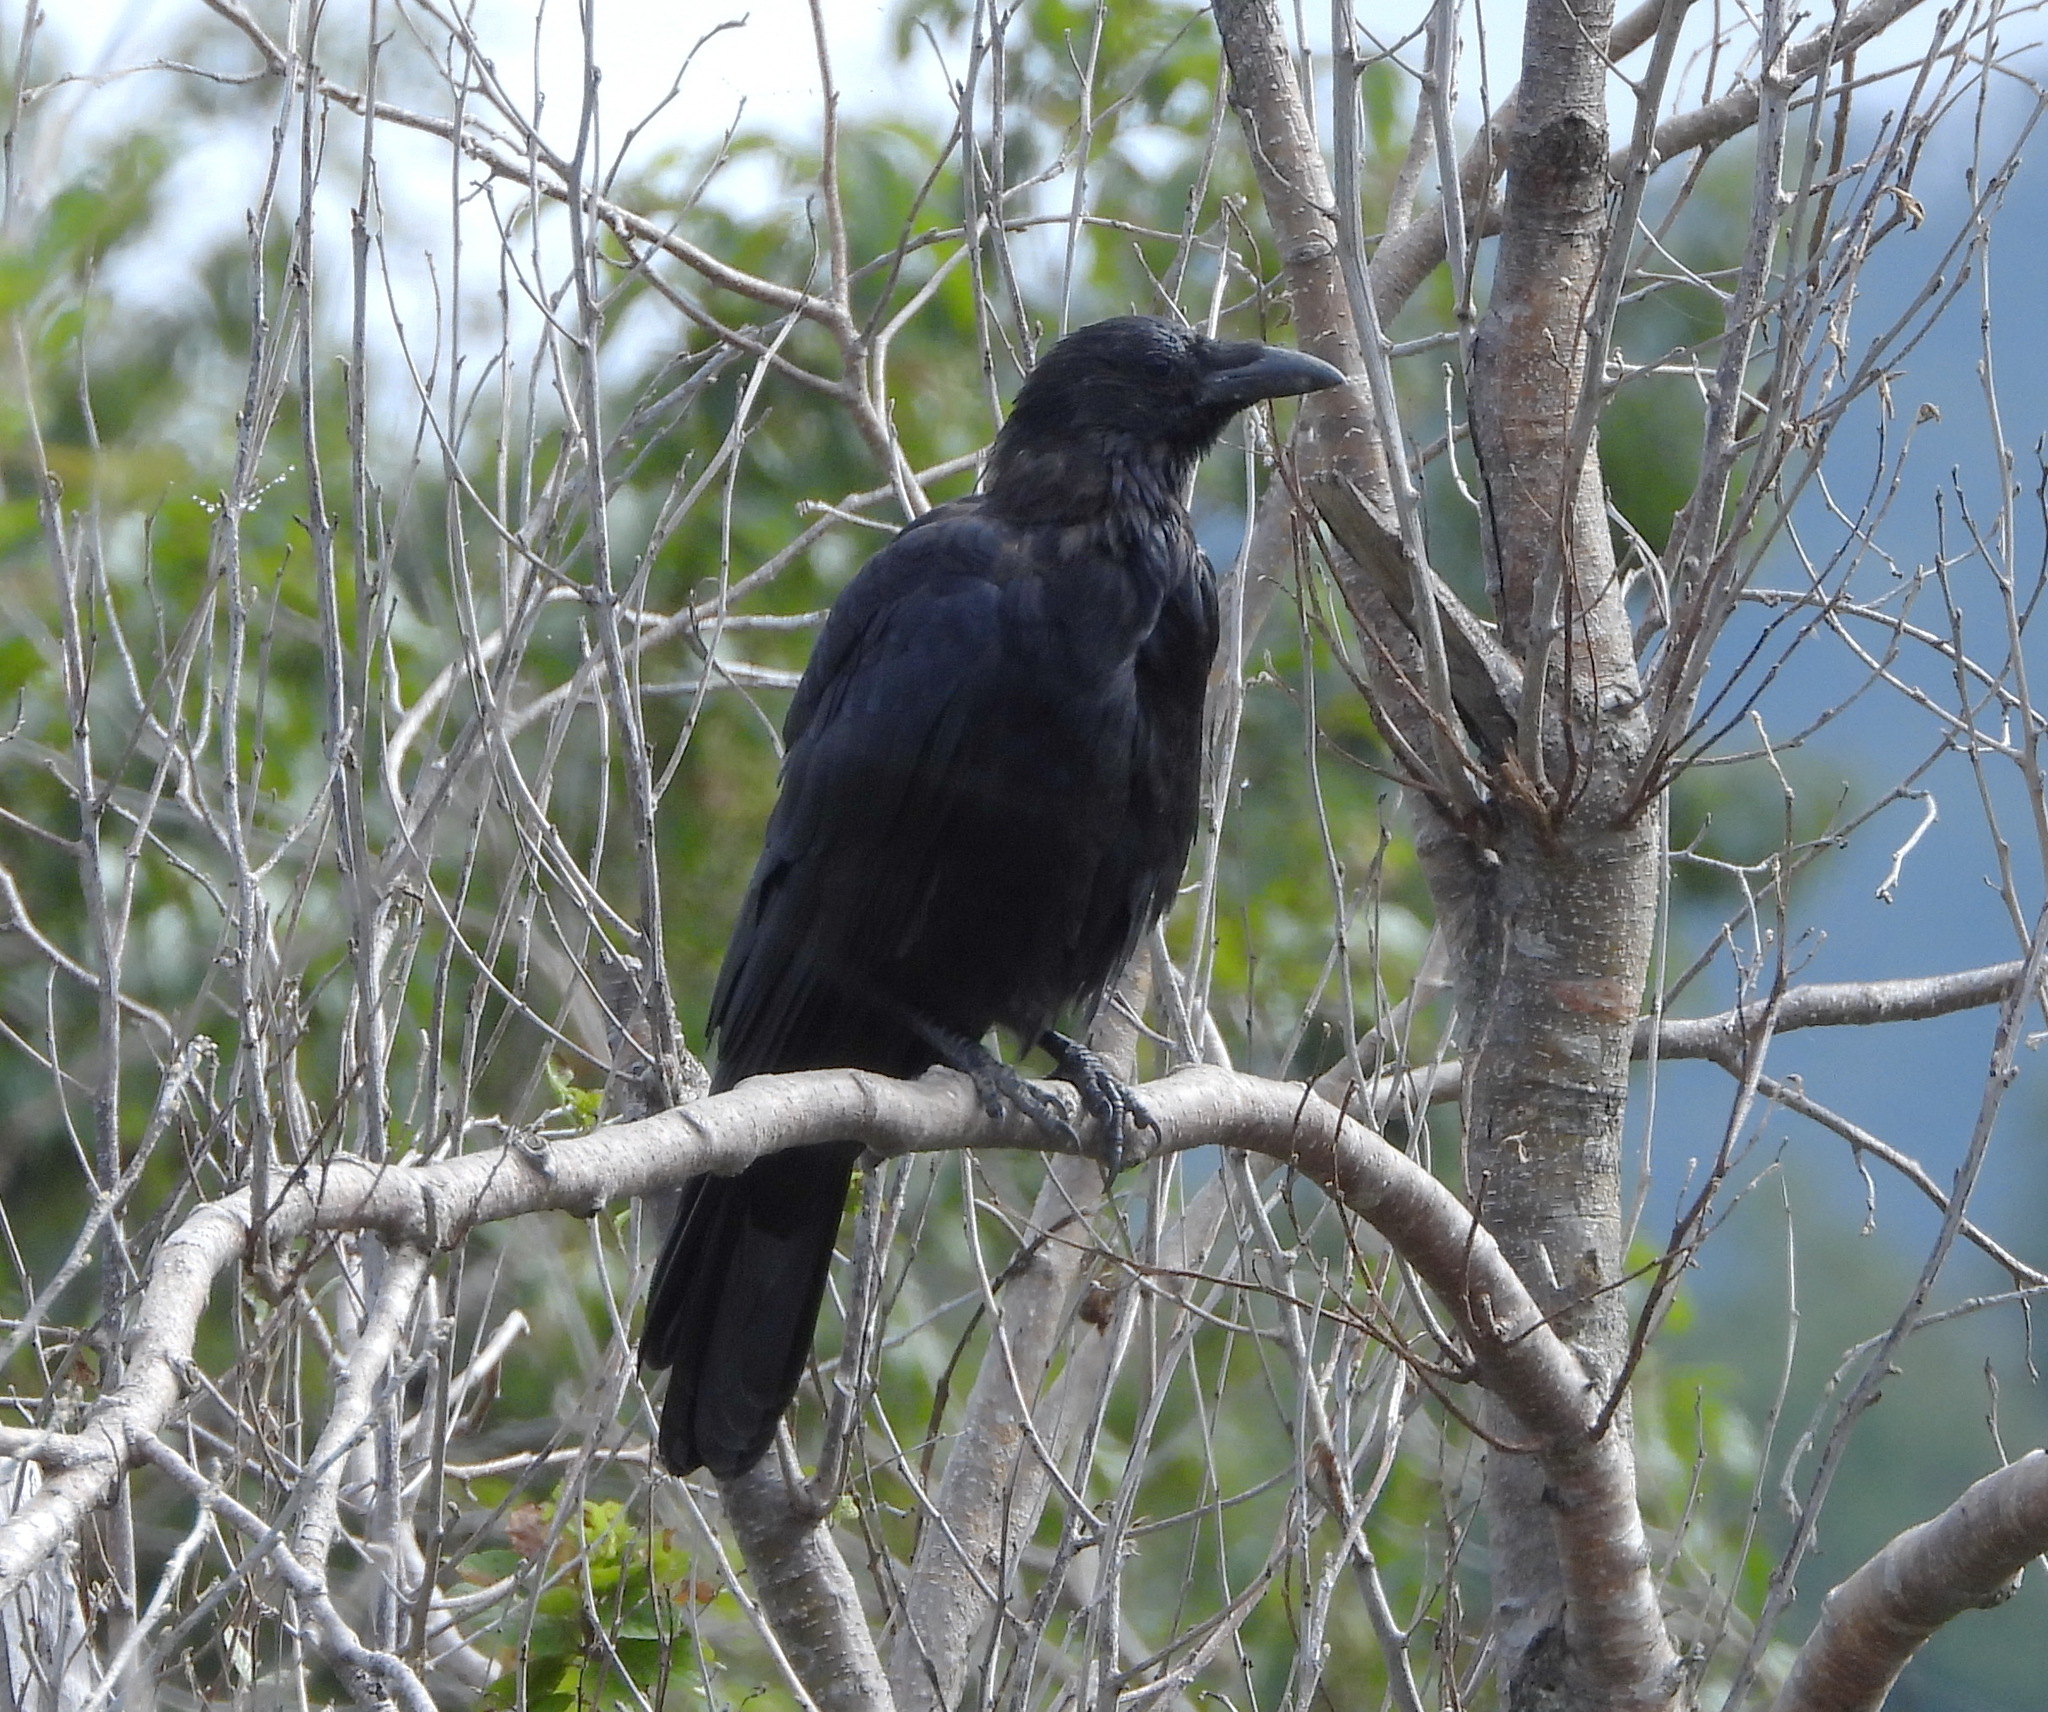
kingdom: Animalia
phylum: Chordata
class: Aves
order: Passeriformes
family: Corvidae
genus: Corvus
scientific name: Corvus corone
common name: Carrion crow
